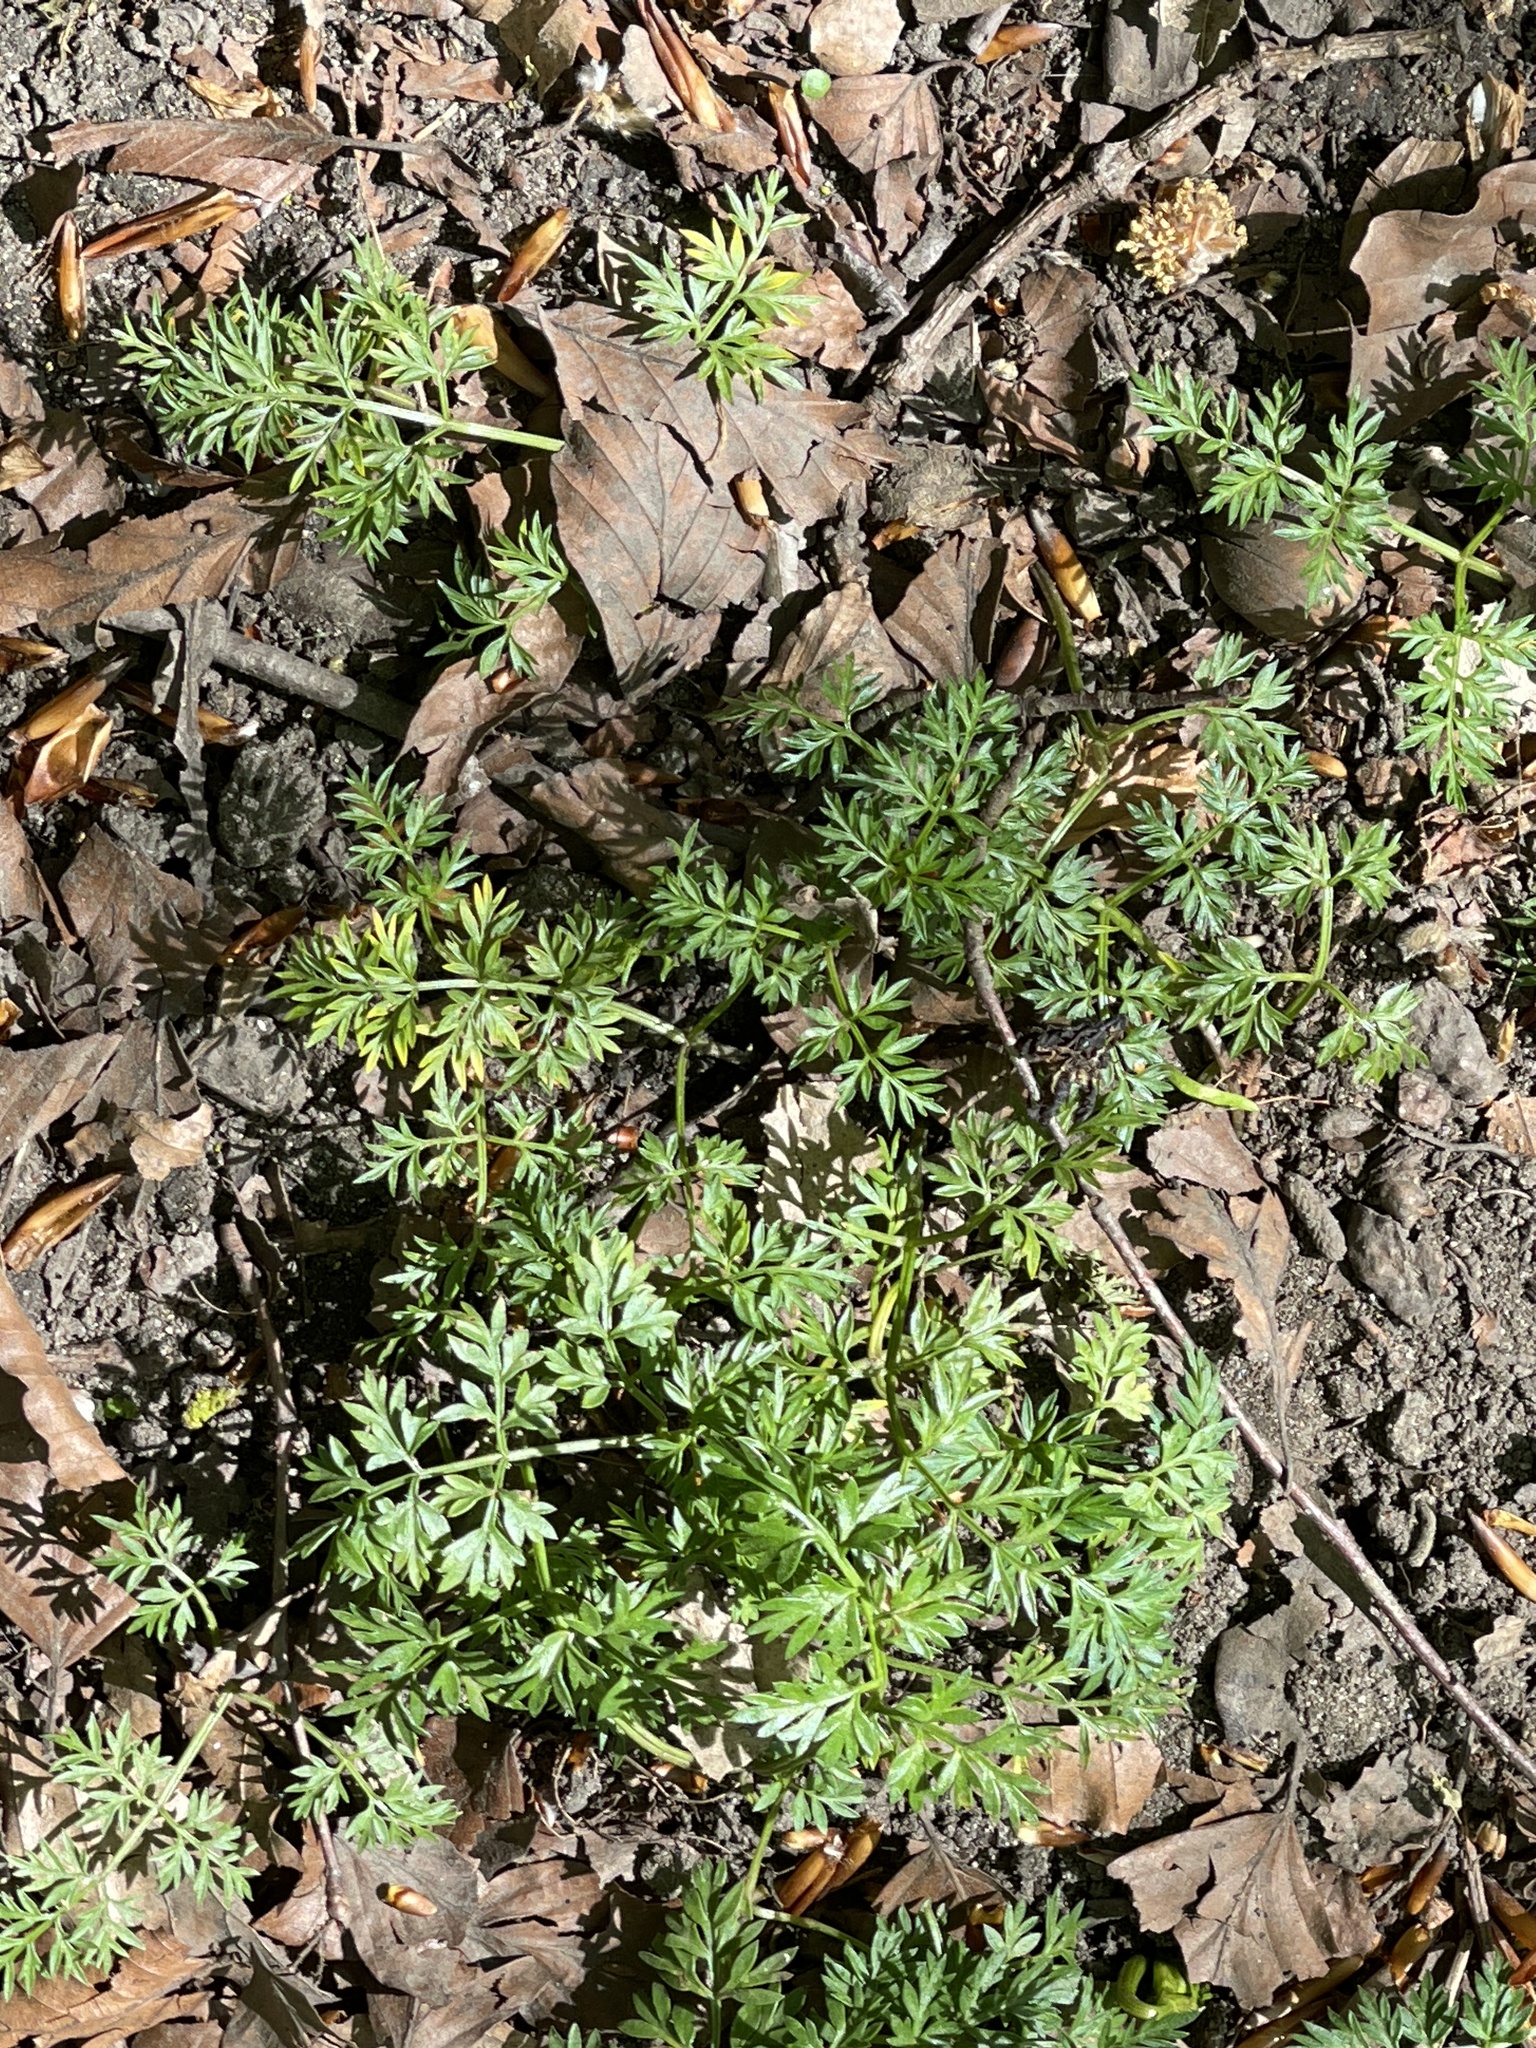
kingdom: Plantae
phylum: Tracheophyta
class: Magnoliopsida
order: Apiales
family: Apiaceae
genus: Conopodium
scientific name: Conopodium majus
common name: Pignut
